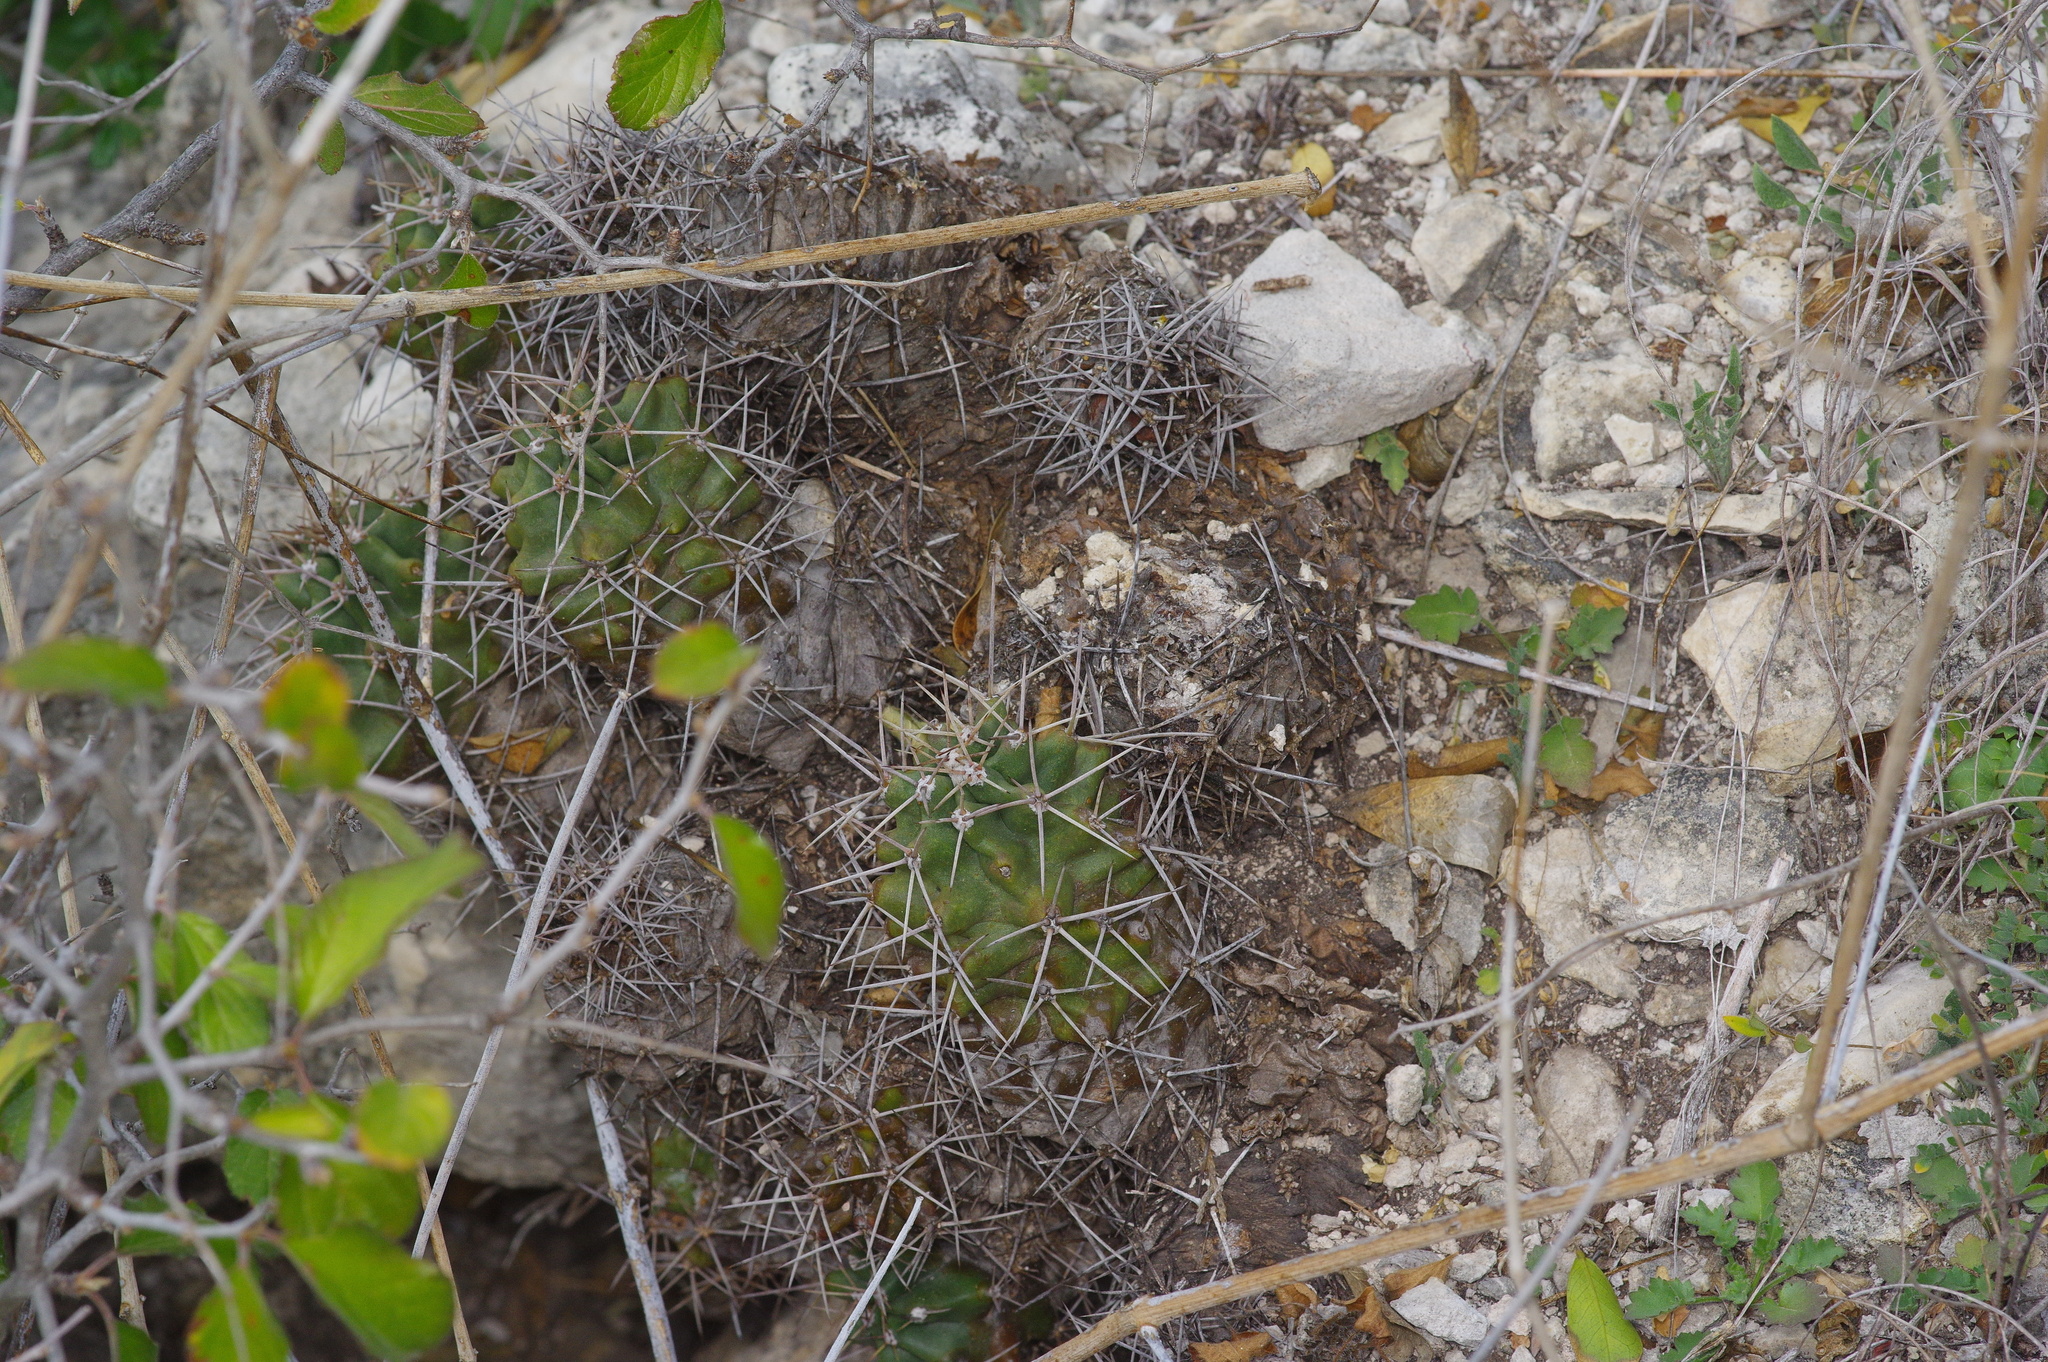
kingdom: Plantae
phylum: Tracheophyta
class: Magnoliopsida
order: Caryophyllales
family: Cactaceae
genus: Echinocereus
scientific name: Echinocereus coccineus
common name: Scarlet hedgehog cactus
